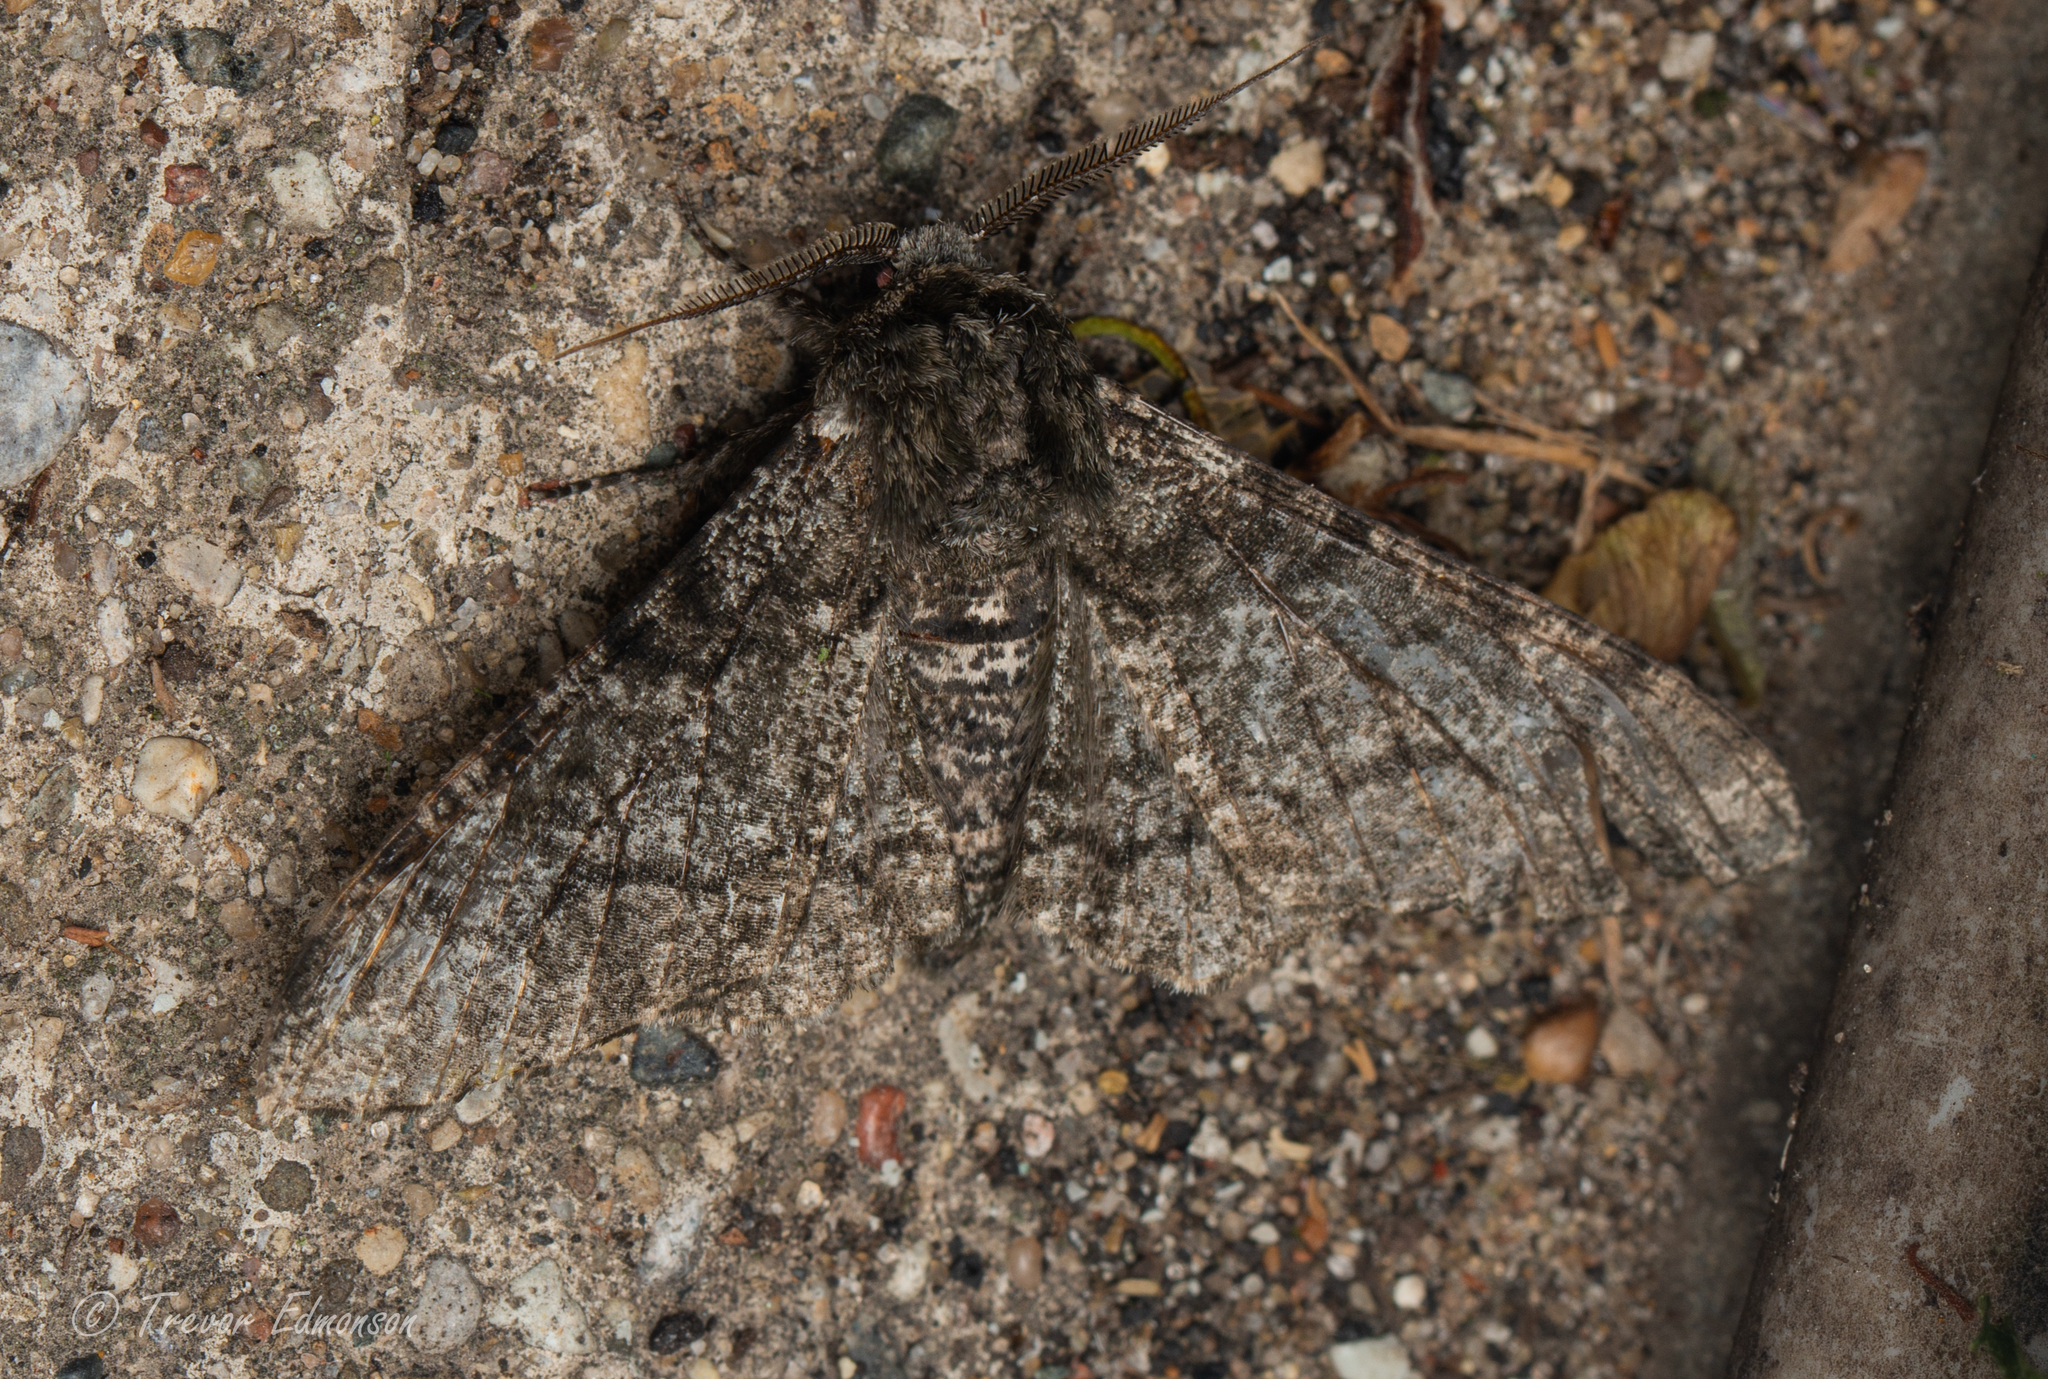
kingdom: Animalia
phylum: Arthropoda
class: Insecta
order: Lepidoptera
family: Geometridae
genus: Biston
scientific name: Biston betularia
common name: Peppered moth
